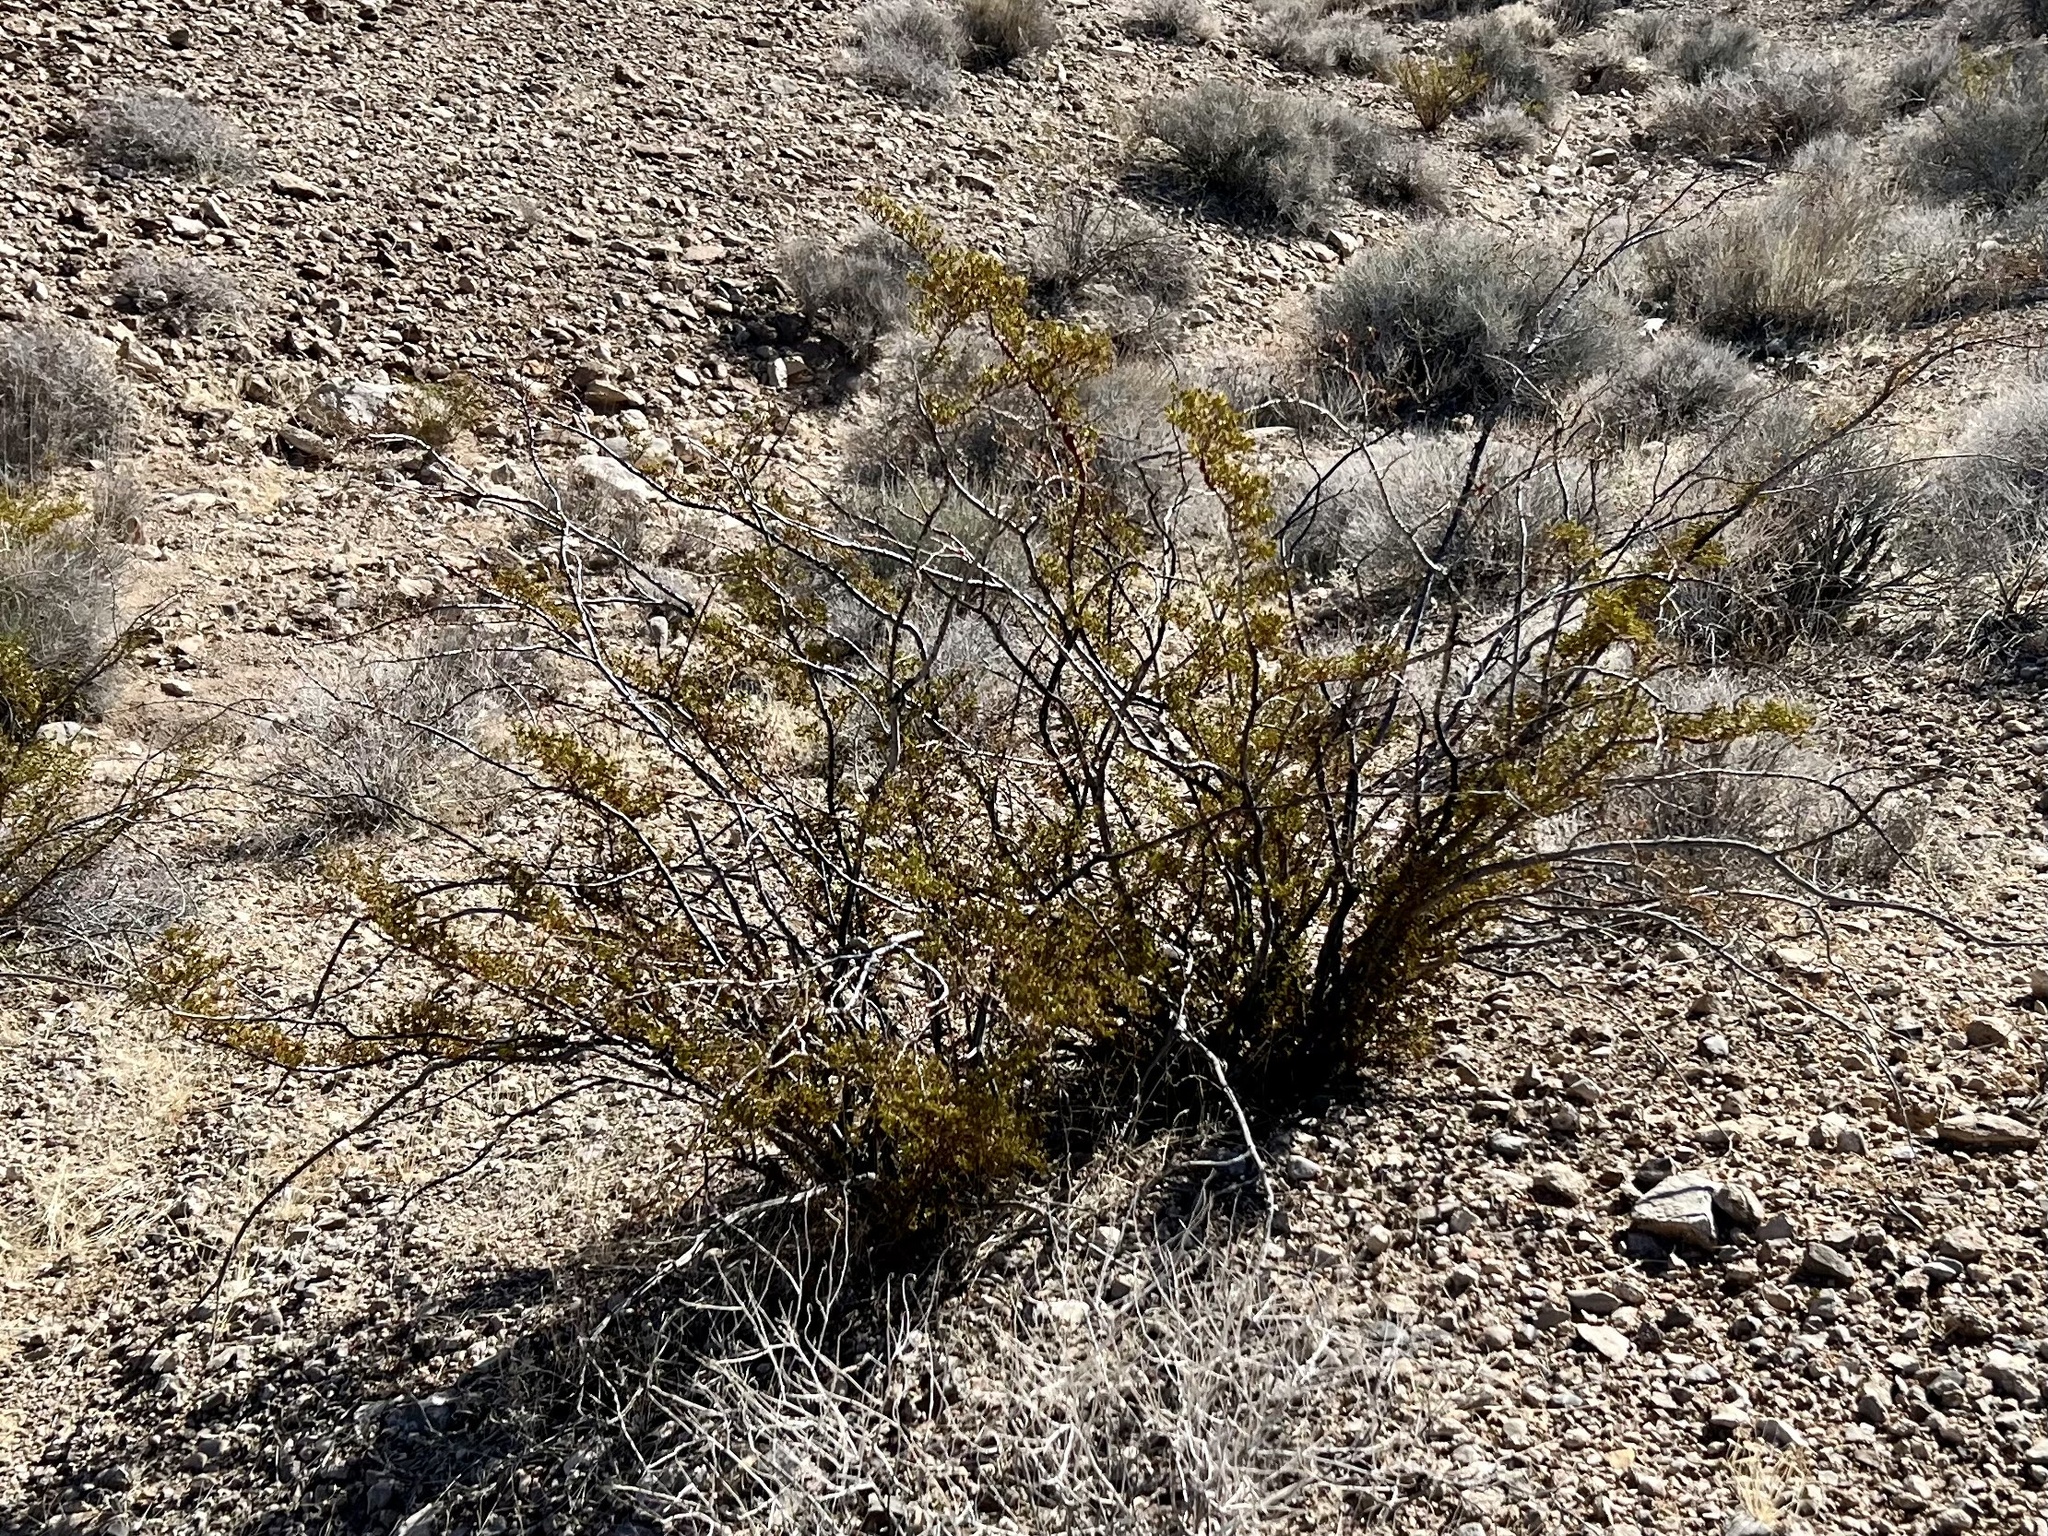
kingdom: Plantae
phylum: Tracheophyta
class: Magnoliopsida
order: Zygophyllales
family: Zygophyllaceae
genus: Larrea
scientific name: Larrea tridentata
